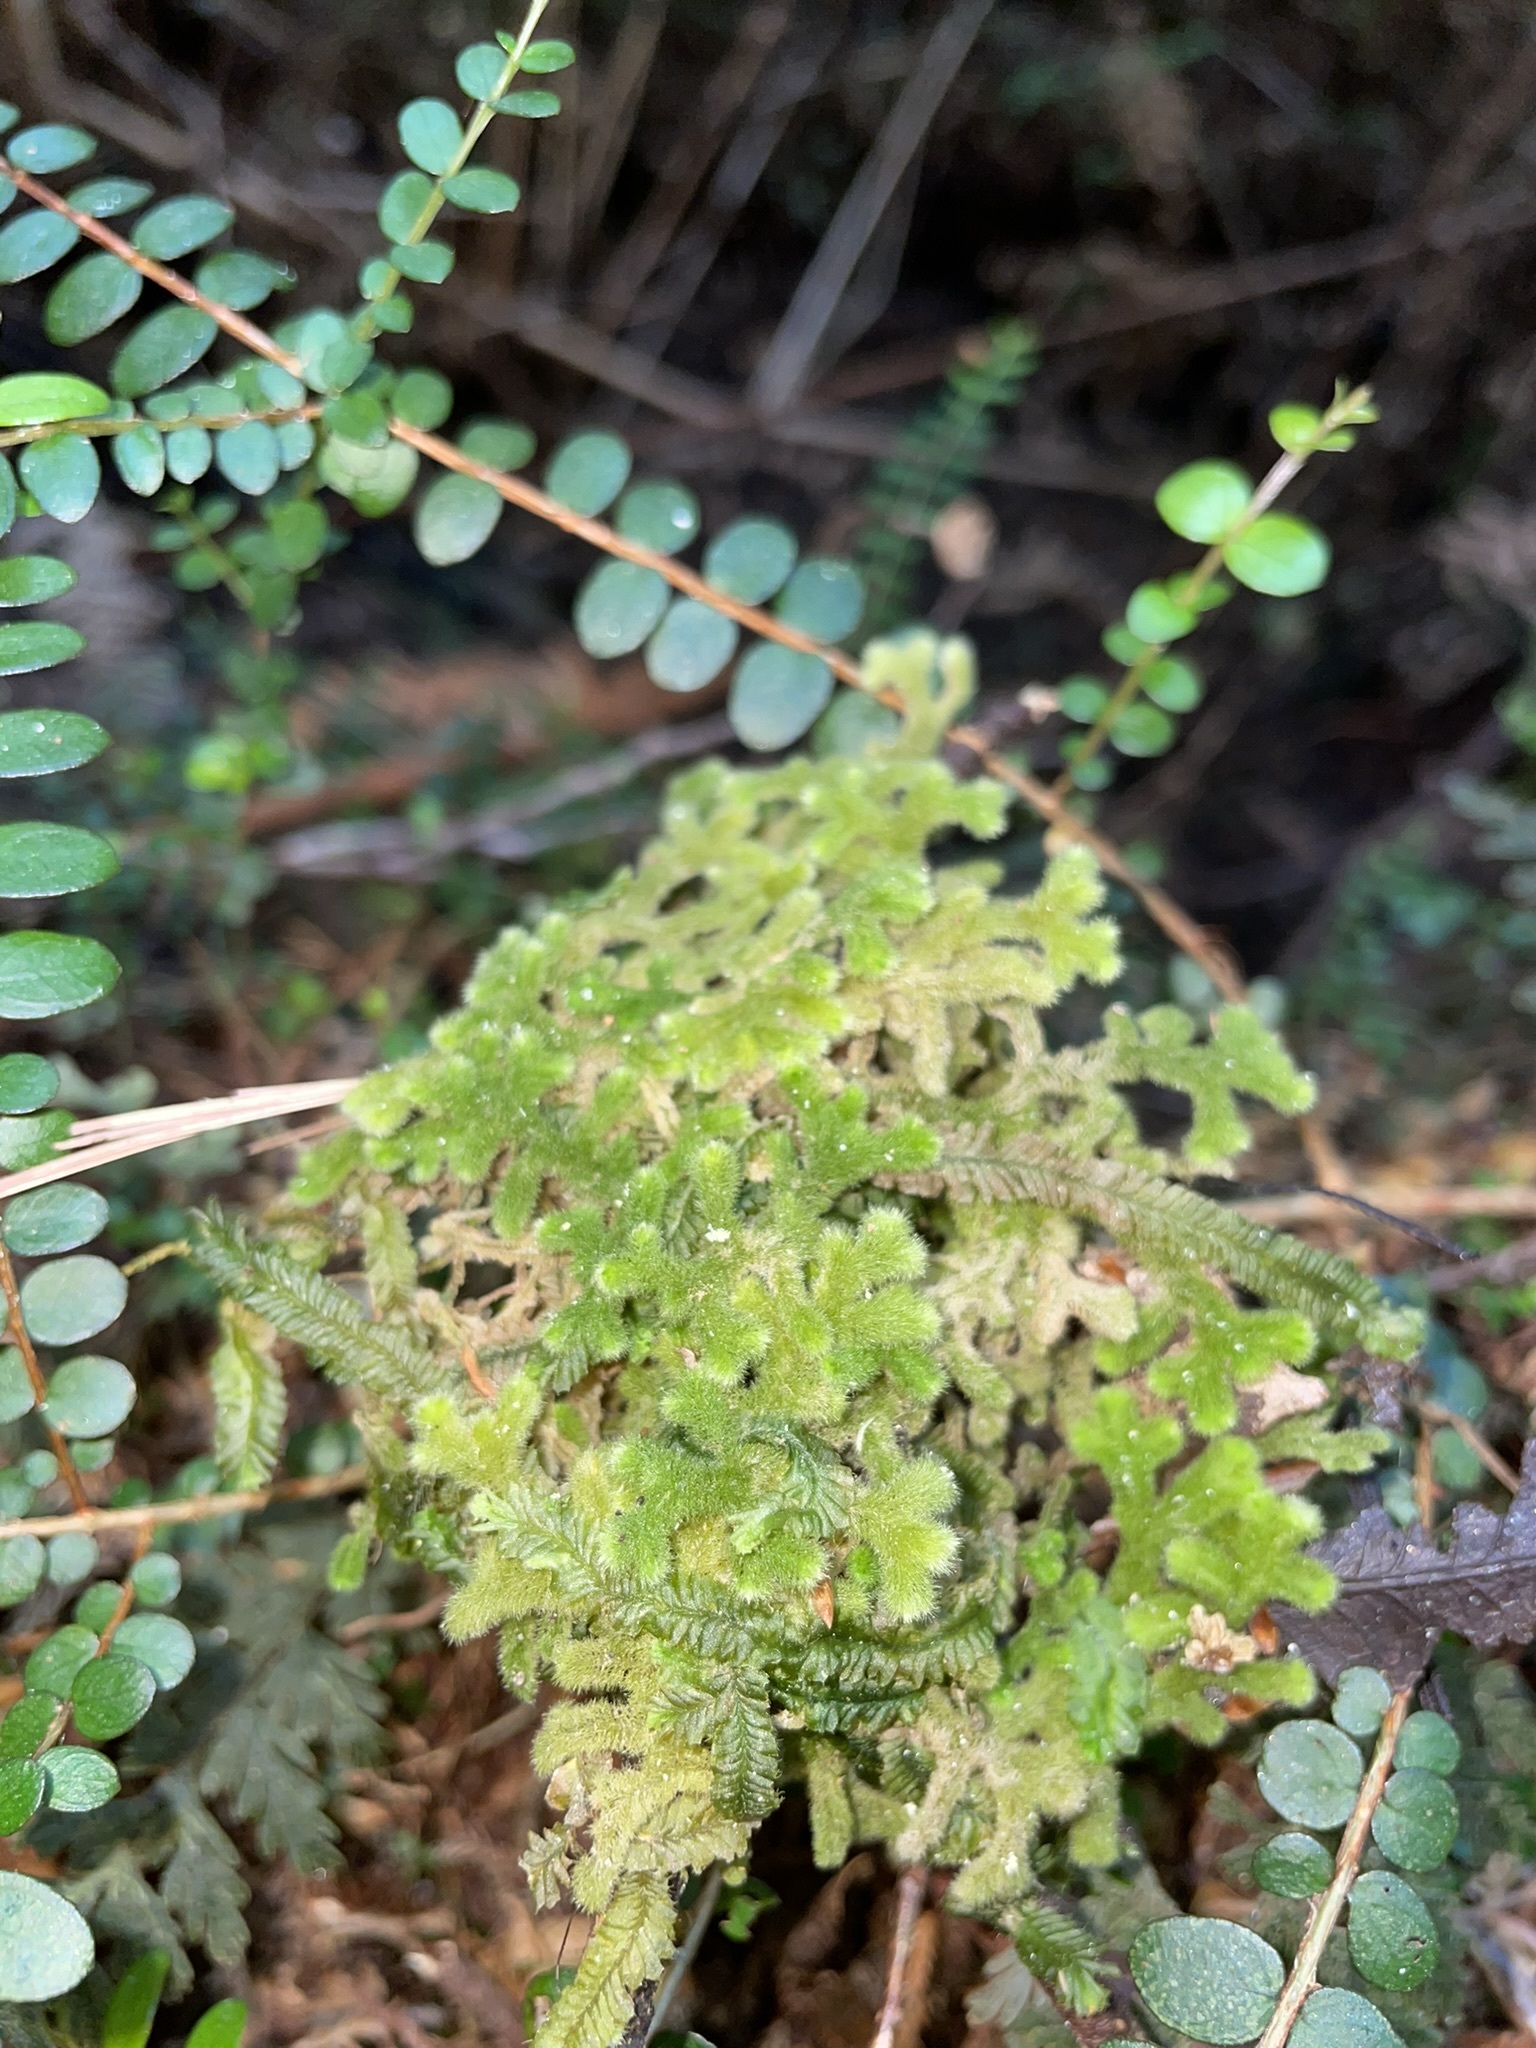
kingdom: Plantae
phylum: Marchantiophyta
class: Jungermanniopsida
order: Jungermanniales
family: Trichocoleaceae
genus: Leiomitra
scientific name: Leiomitra lanata
